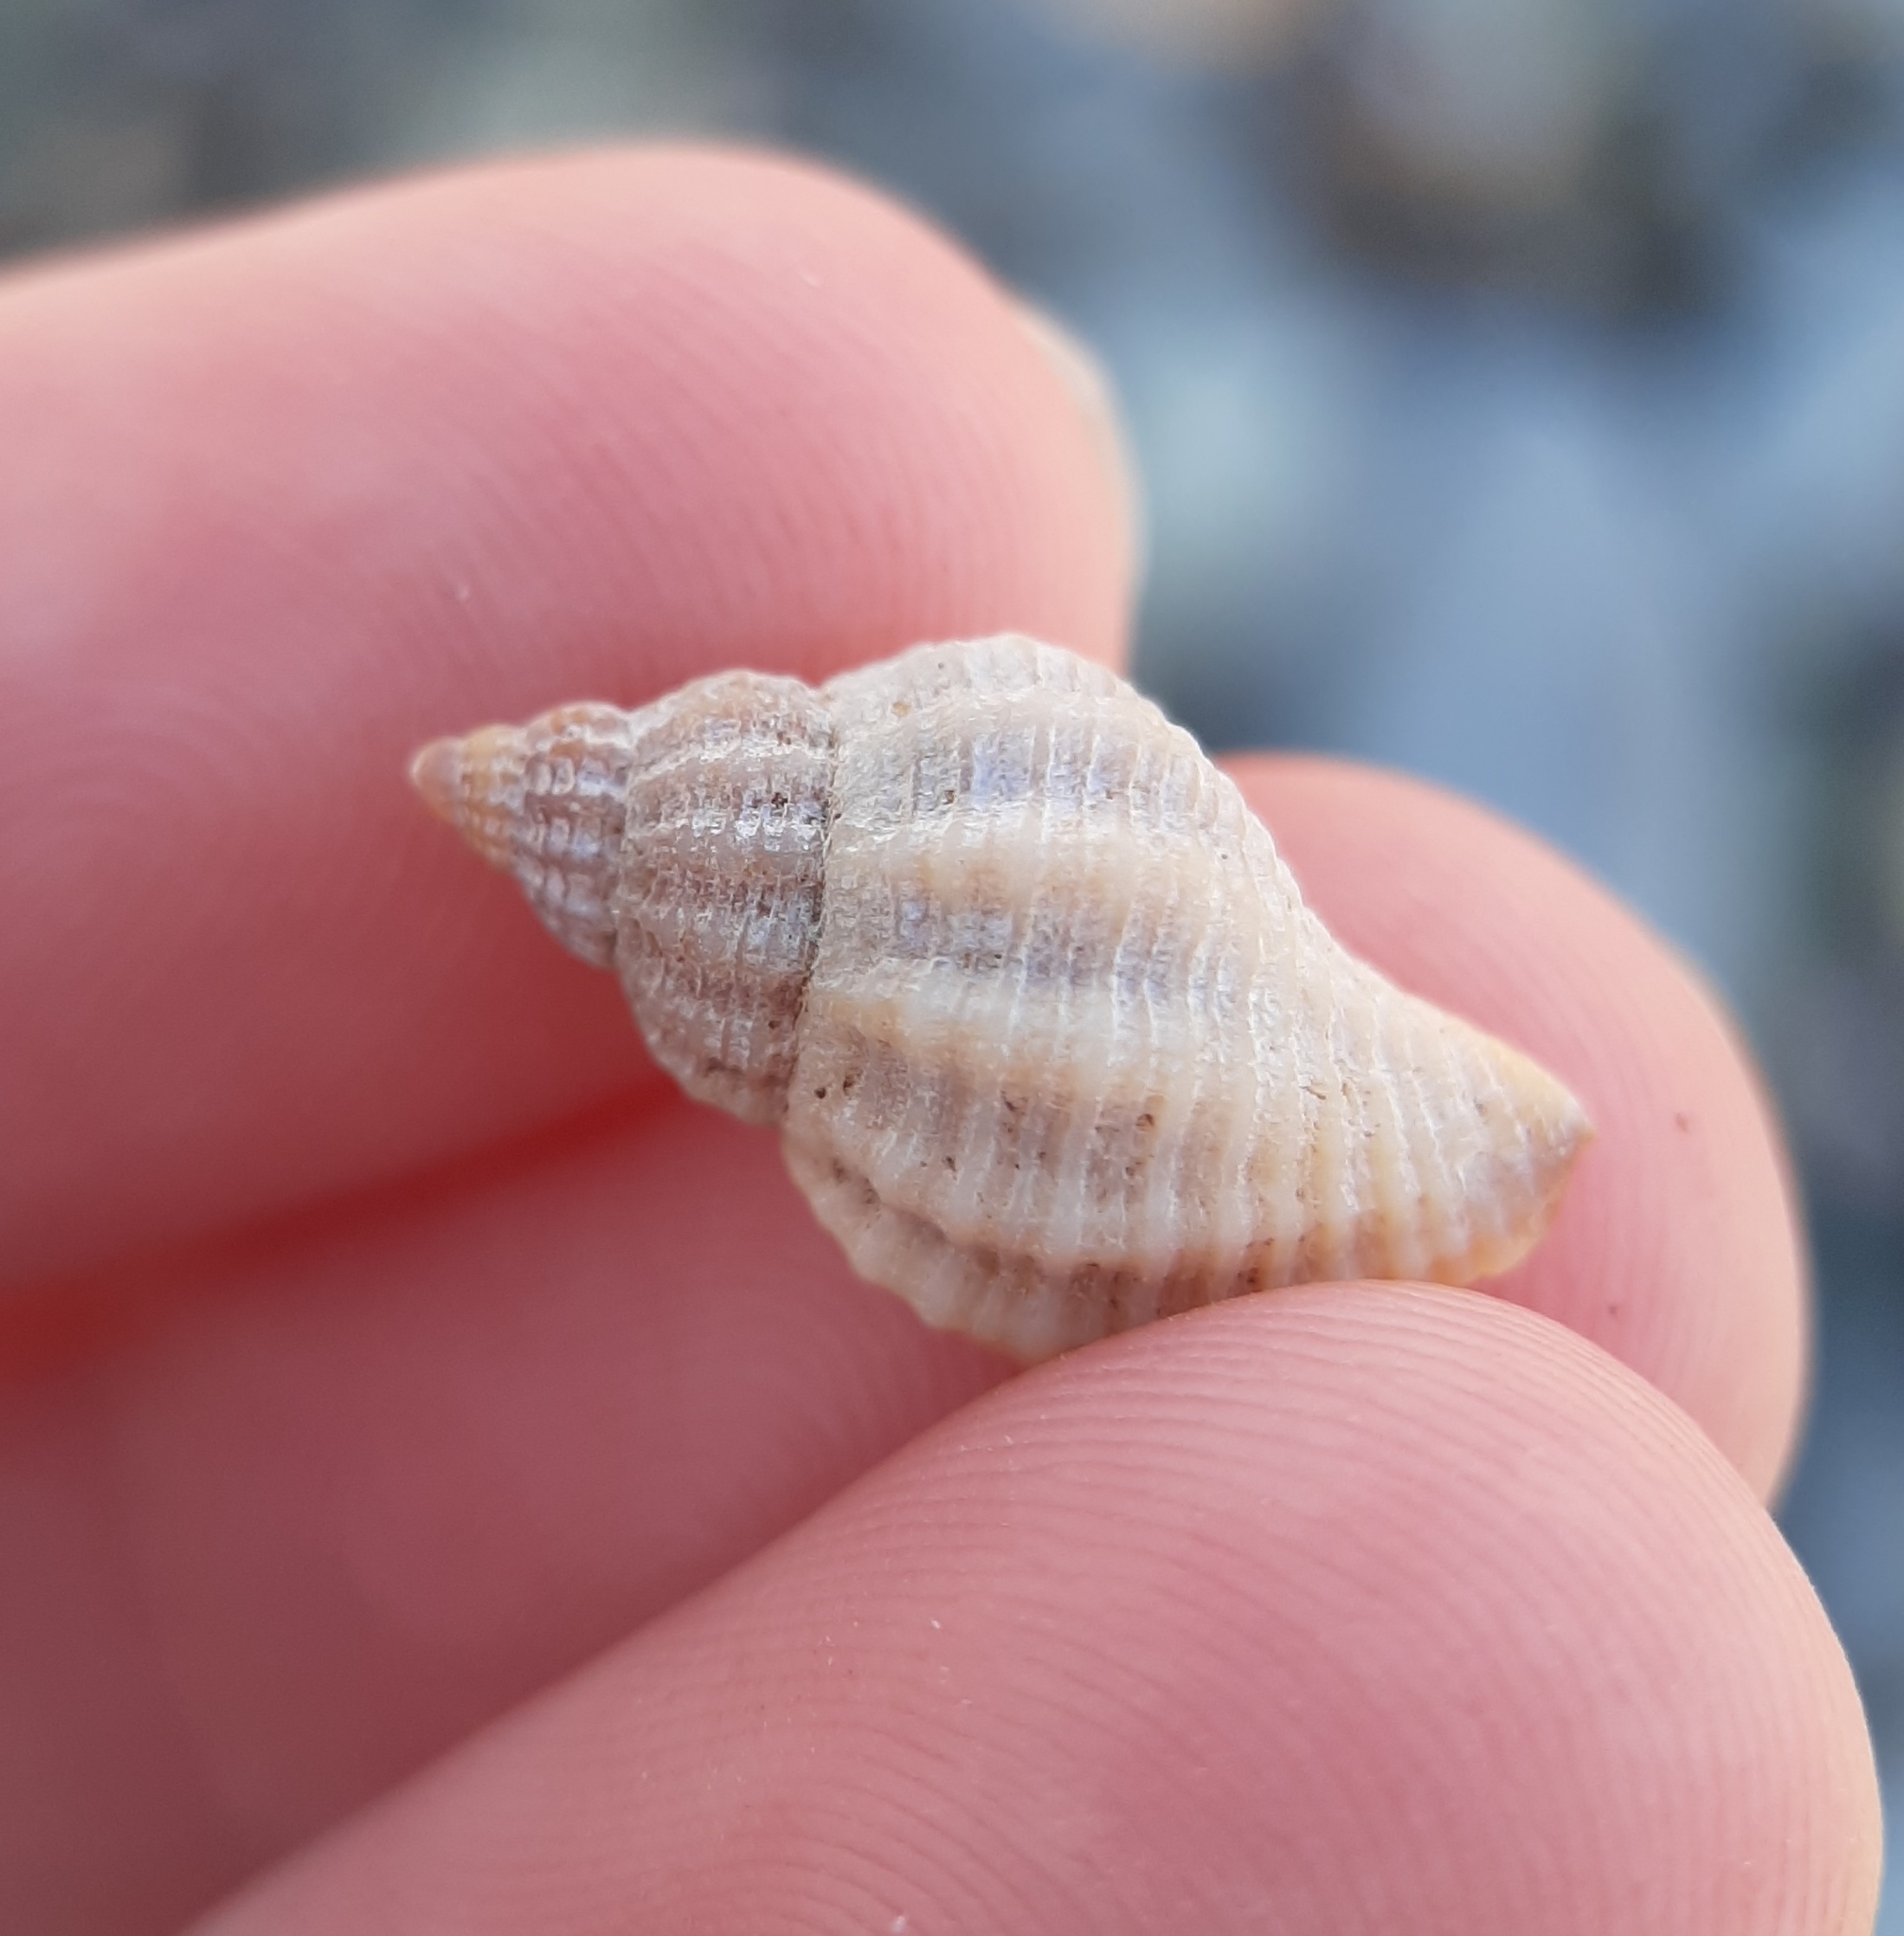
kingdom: Animalia
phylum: Mollusca
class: Gastropoda
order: Neogastropoda
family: Muricidae
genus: Urosalpinx
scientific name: Urosalpinx cinerea
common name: American sting winkle
